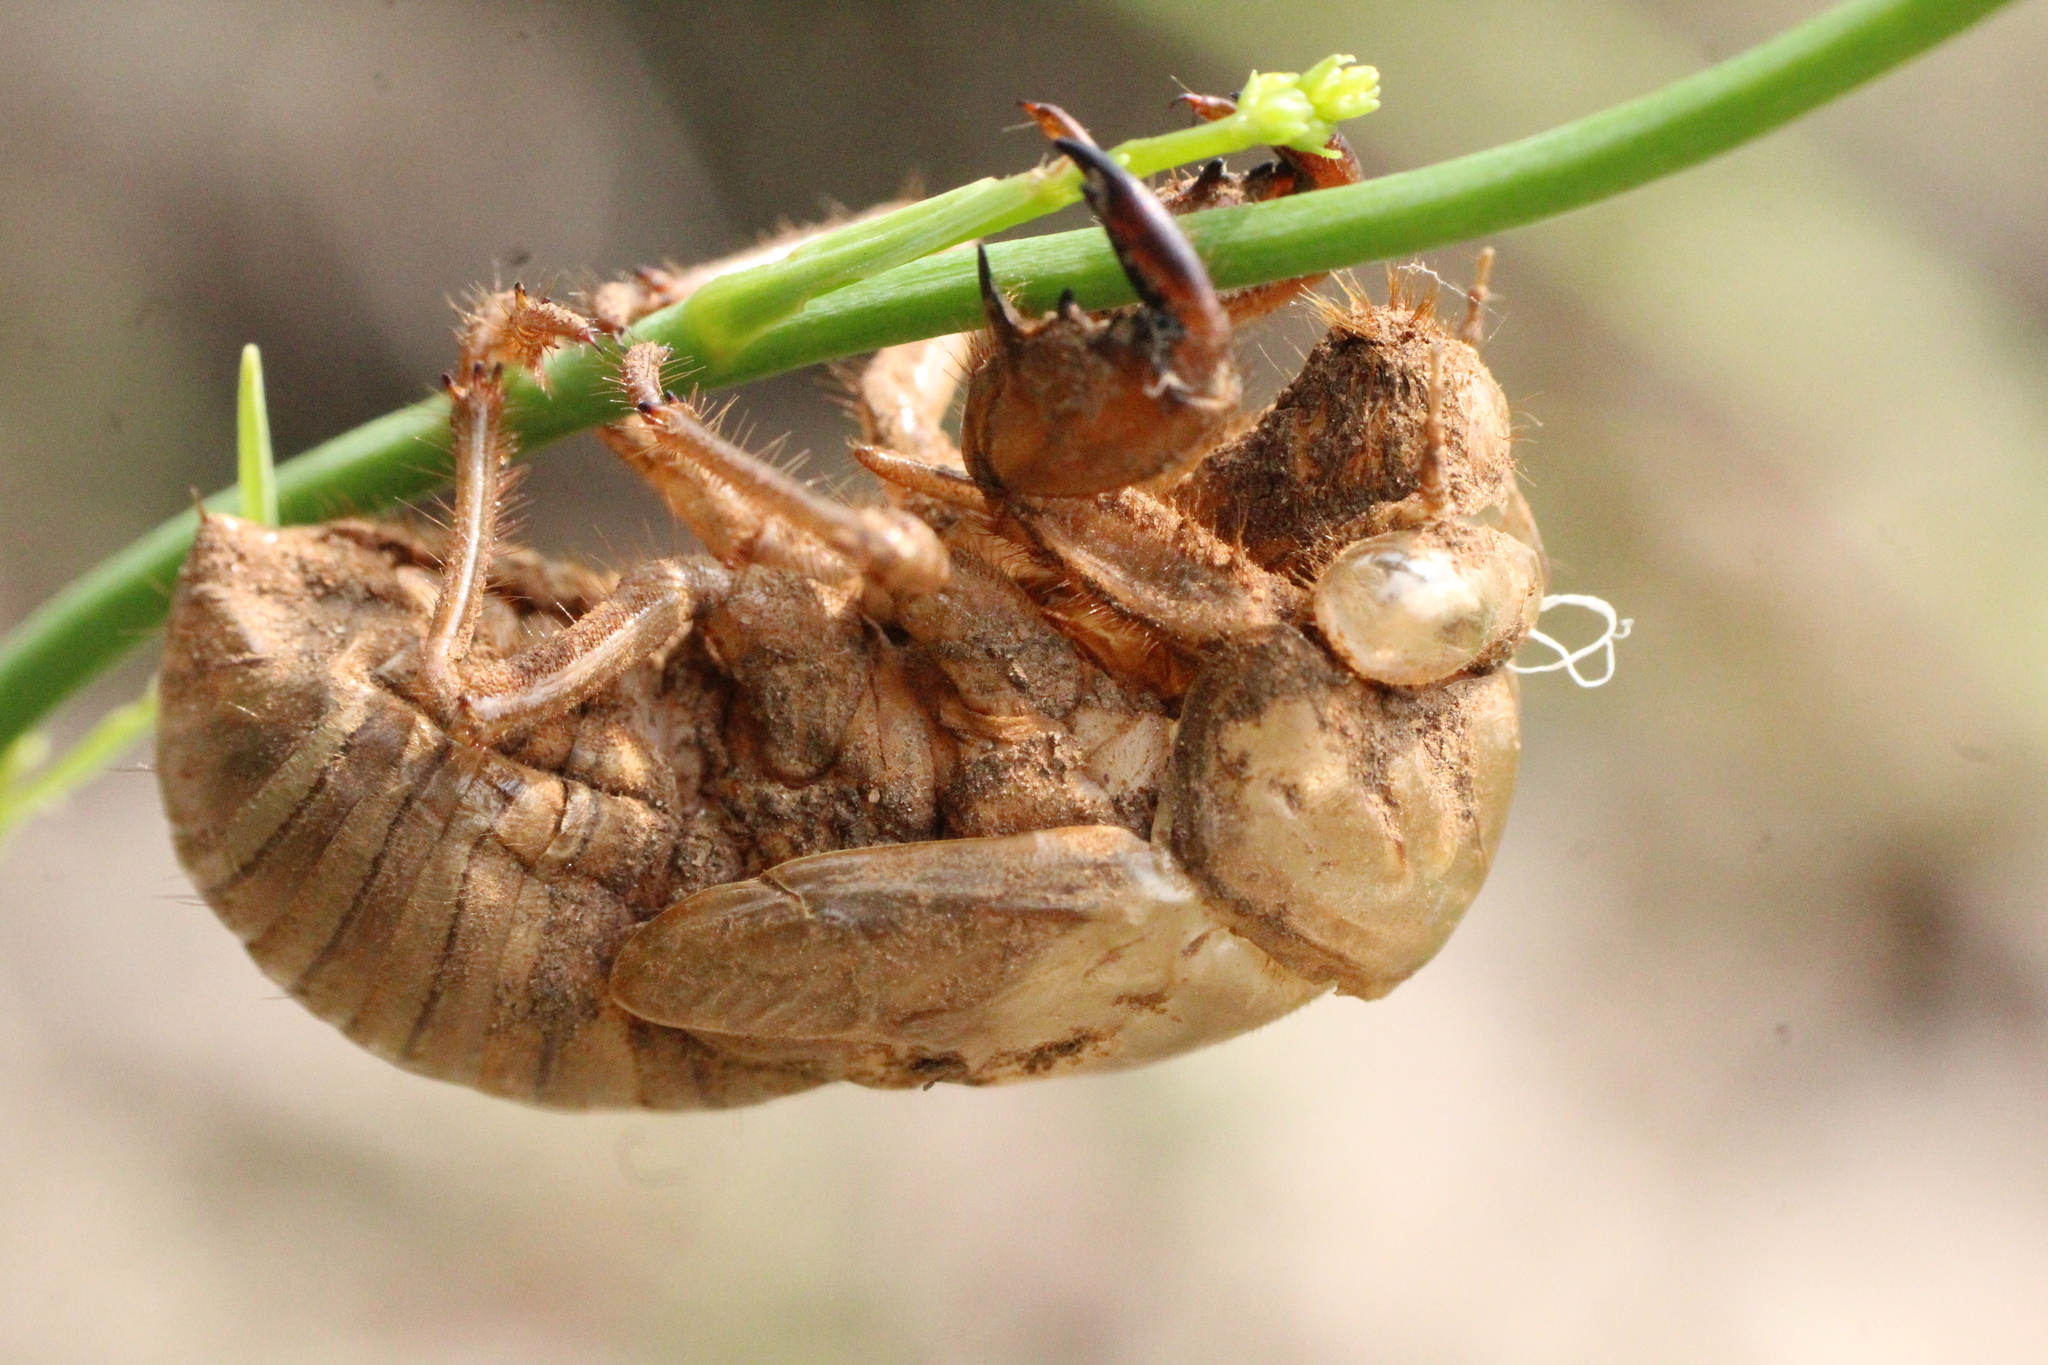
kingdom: Animalia
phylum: Arthropoda
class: Insecta
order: Hemiptera
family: Cicadidae
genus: Lyristes
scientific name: Lyristes plebejus
